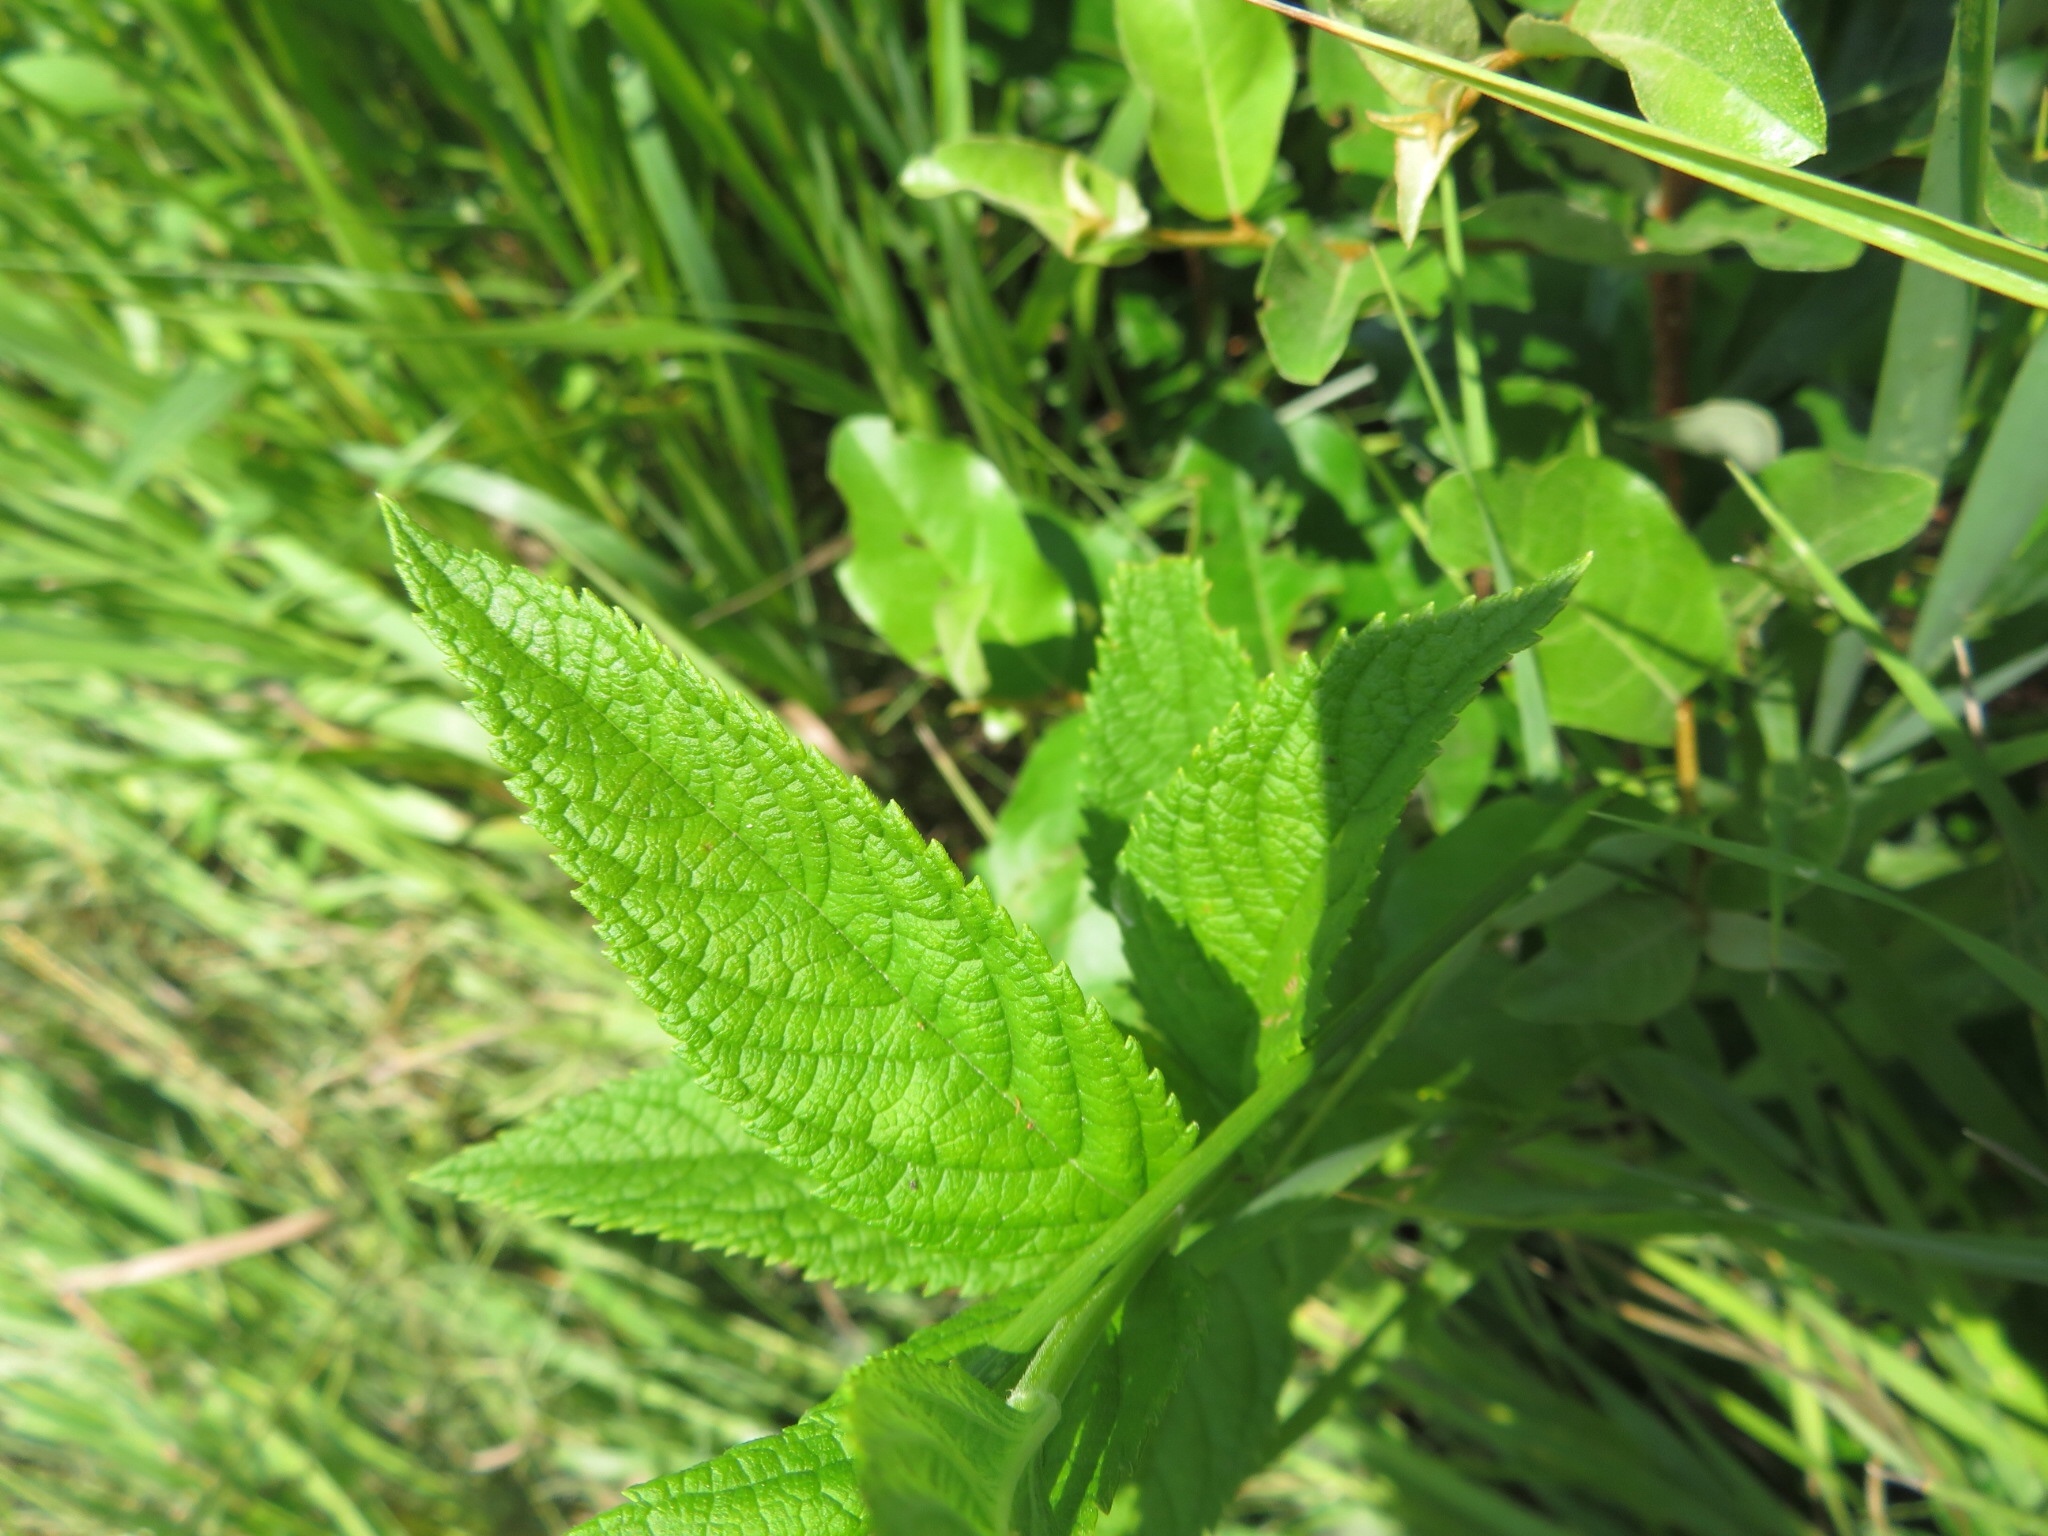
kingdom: Plantae
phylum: Tracheophyta
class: Magnoliopsida
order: Lamiales
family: Lamiaceae
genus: Teucrium
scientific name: Teucrium canadense
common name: American germander
